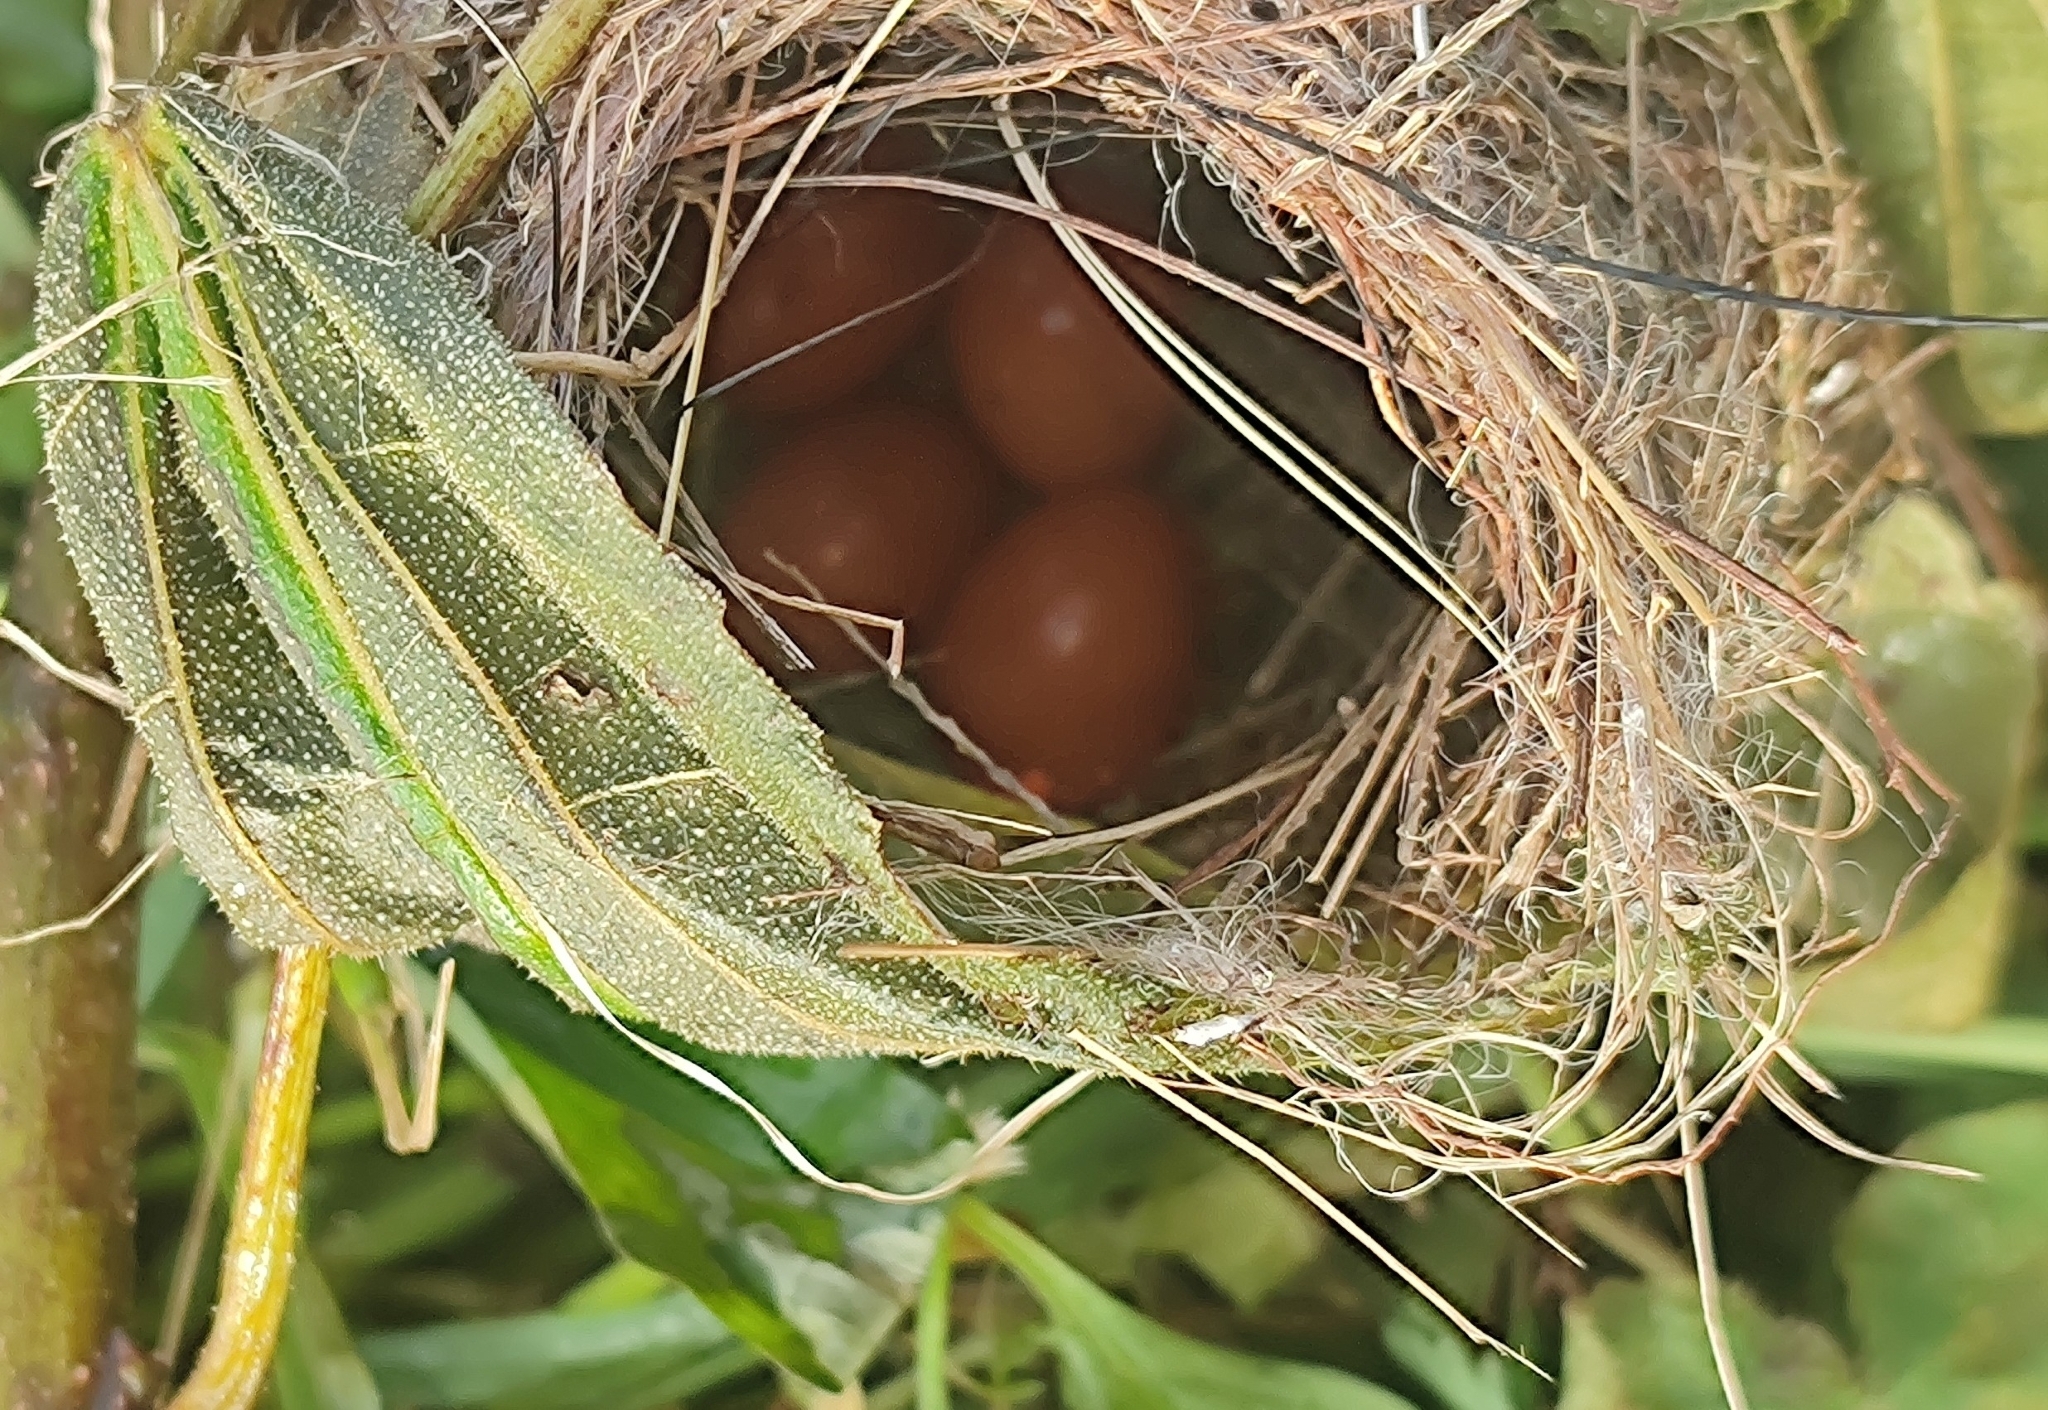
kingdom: Animalia
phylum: Chordata
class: Aves
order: Passeriformes
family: Cisticolidae
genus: Prinia
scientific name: Prinia socialis
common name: Ashy prinia
